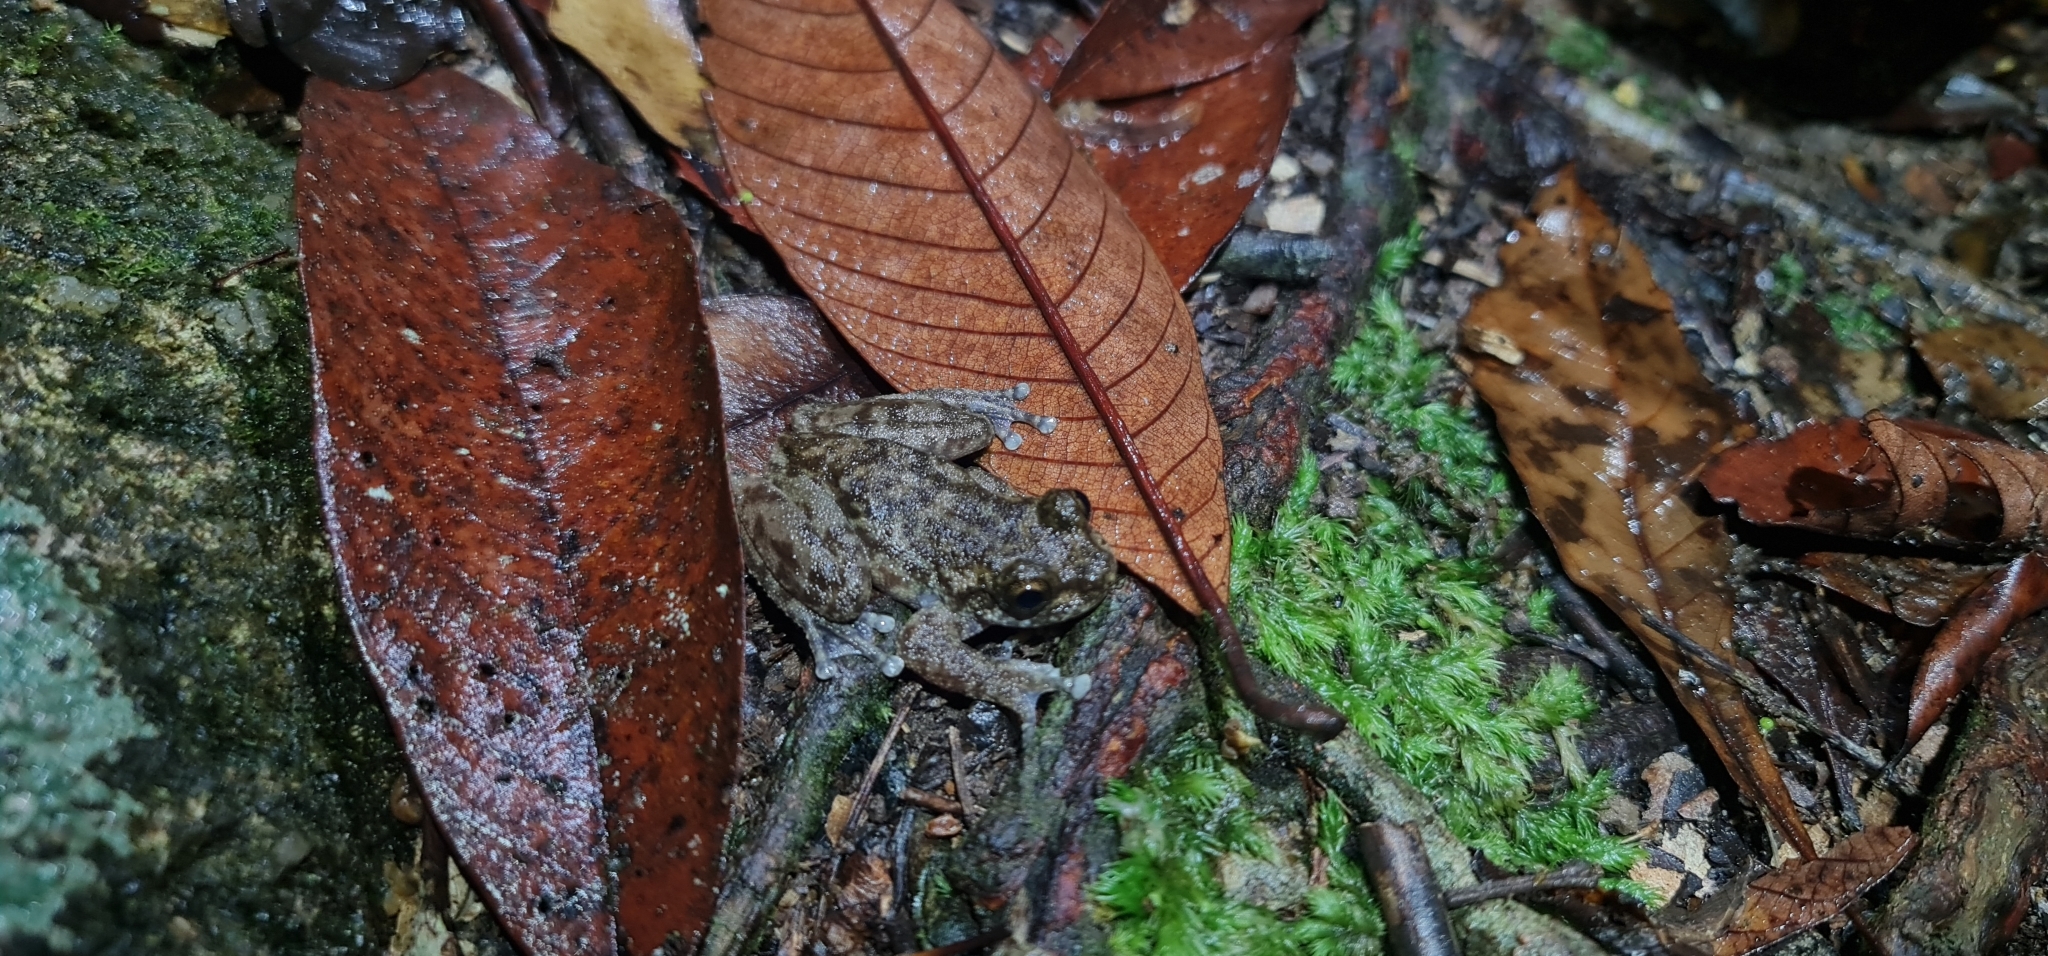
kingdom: Animalia
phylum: Chordata
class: Amphibia
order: Anura
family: Pelodryadidae
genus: Ranoidea
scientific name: Ranoidea nannotis
